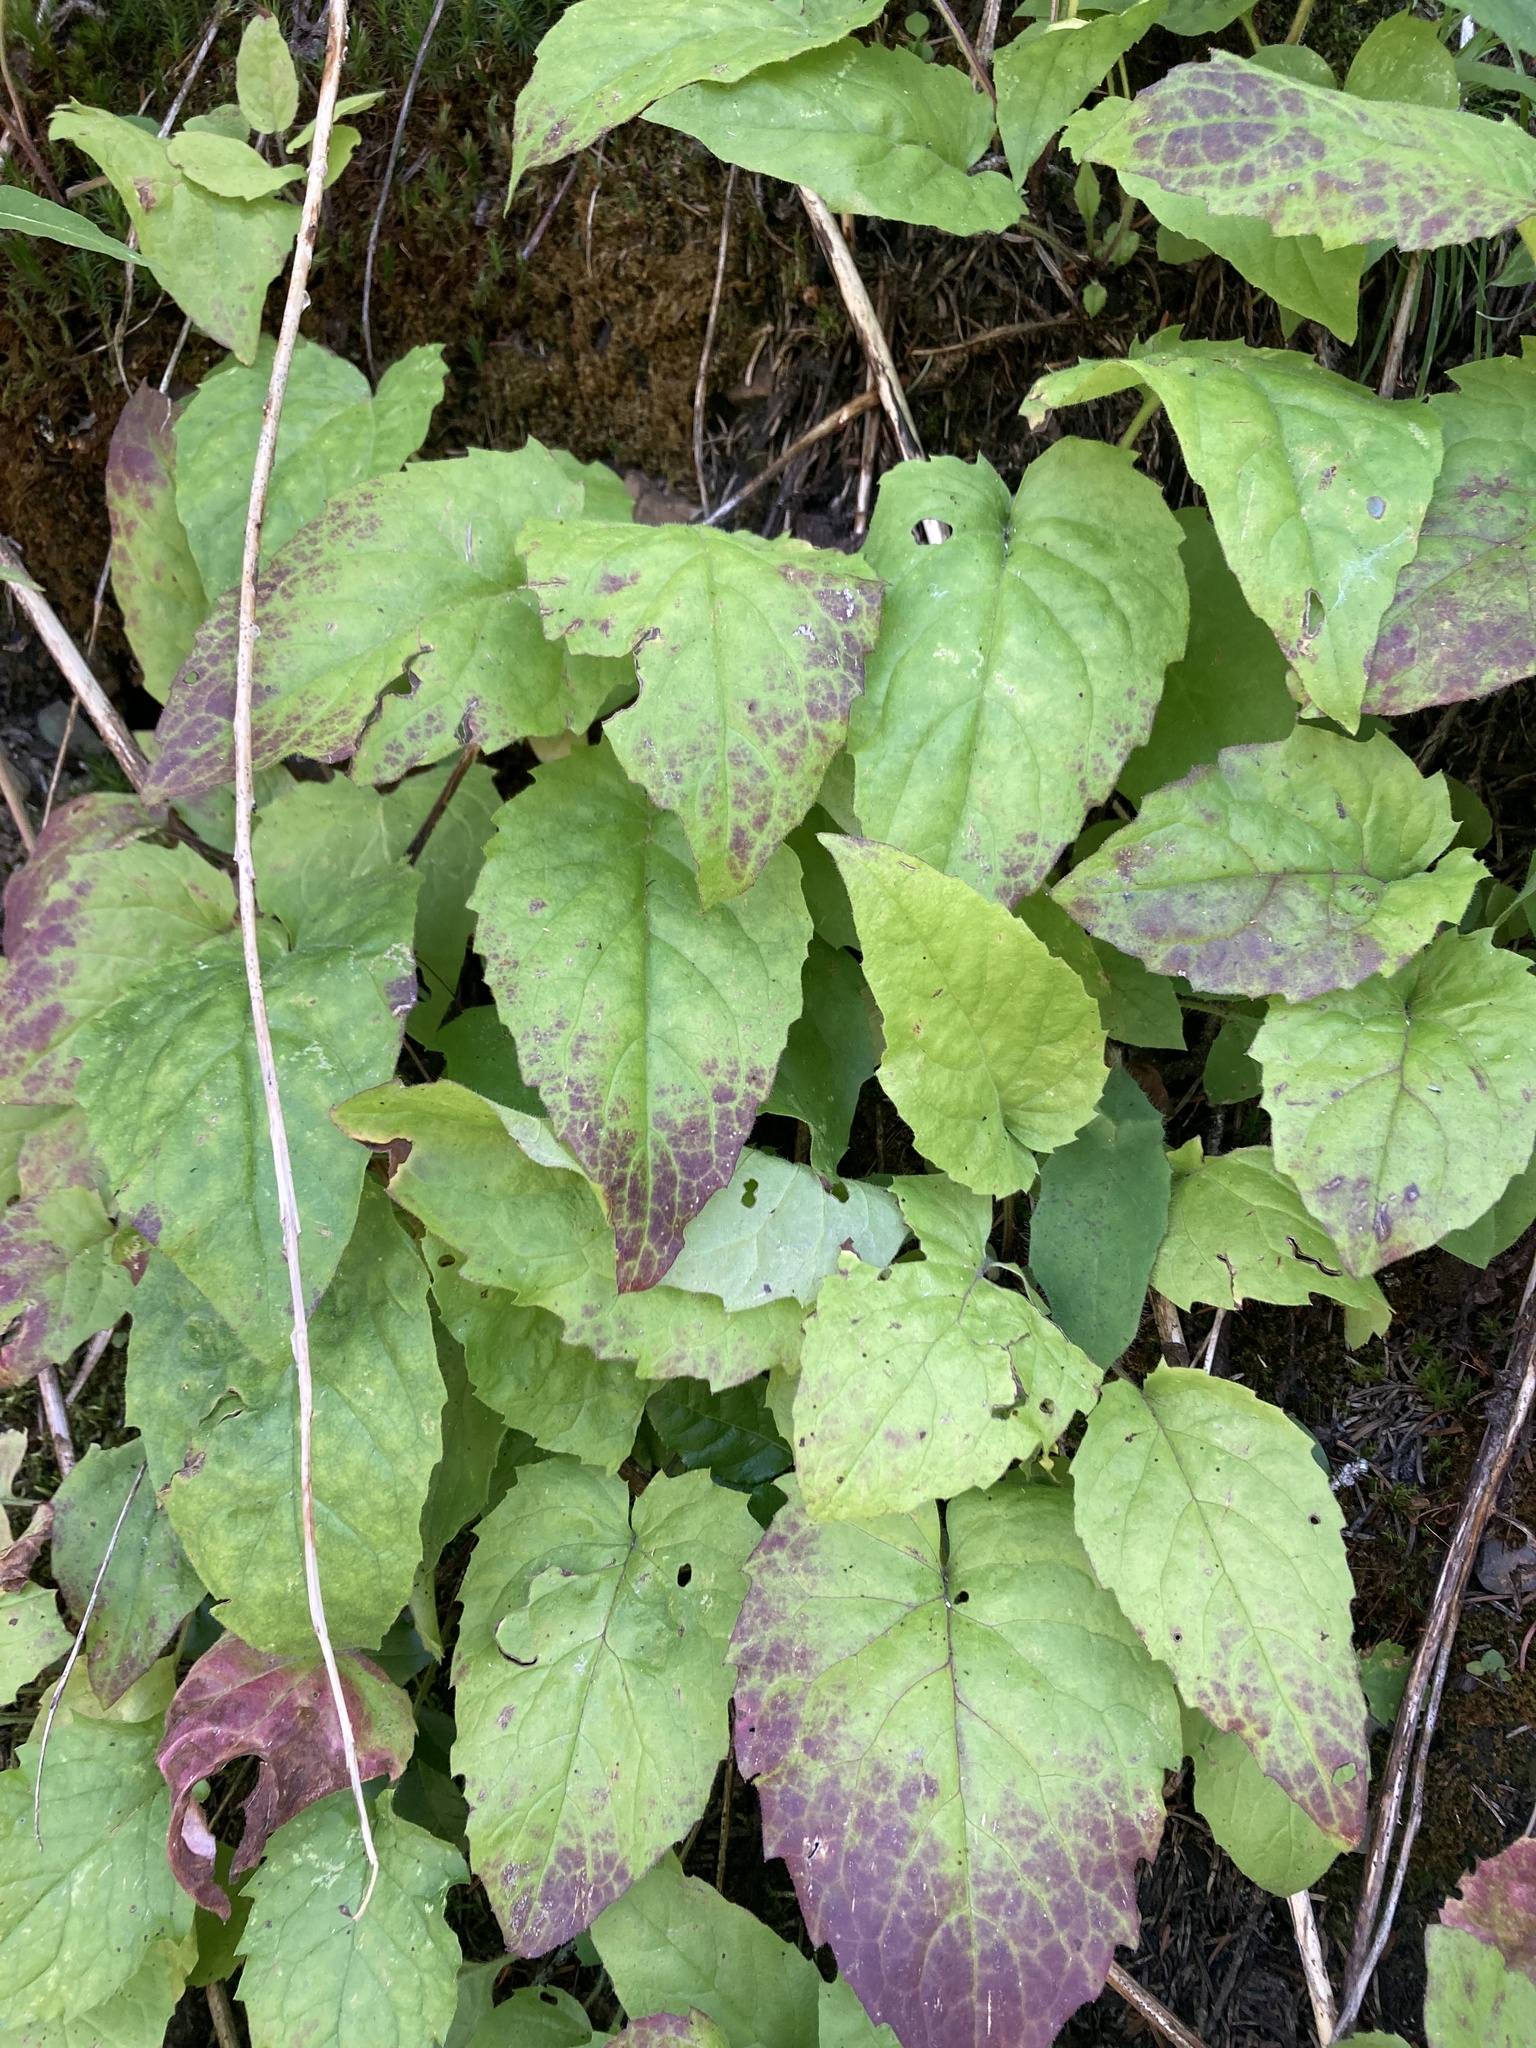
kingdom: Plantae
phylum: Tracheophyta
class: Magnoliopsida
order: Asterales
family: Asteraceae
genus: Nabalus
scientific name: Nabalus sagittatus
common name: Arrowleaf snakeroot
